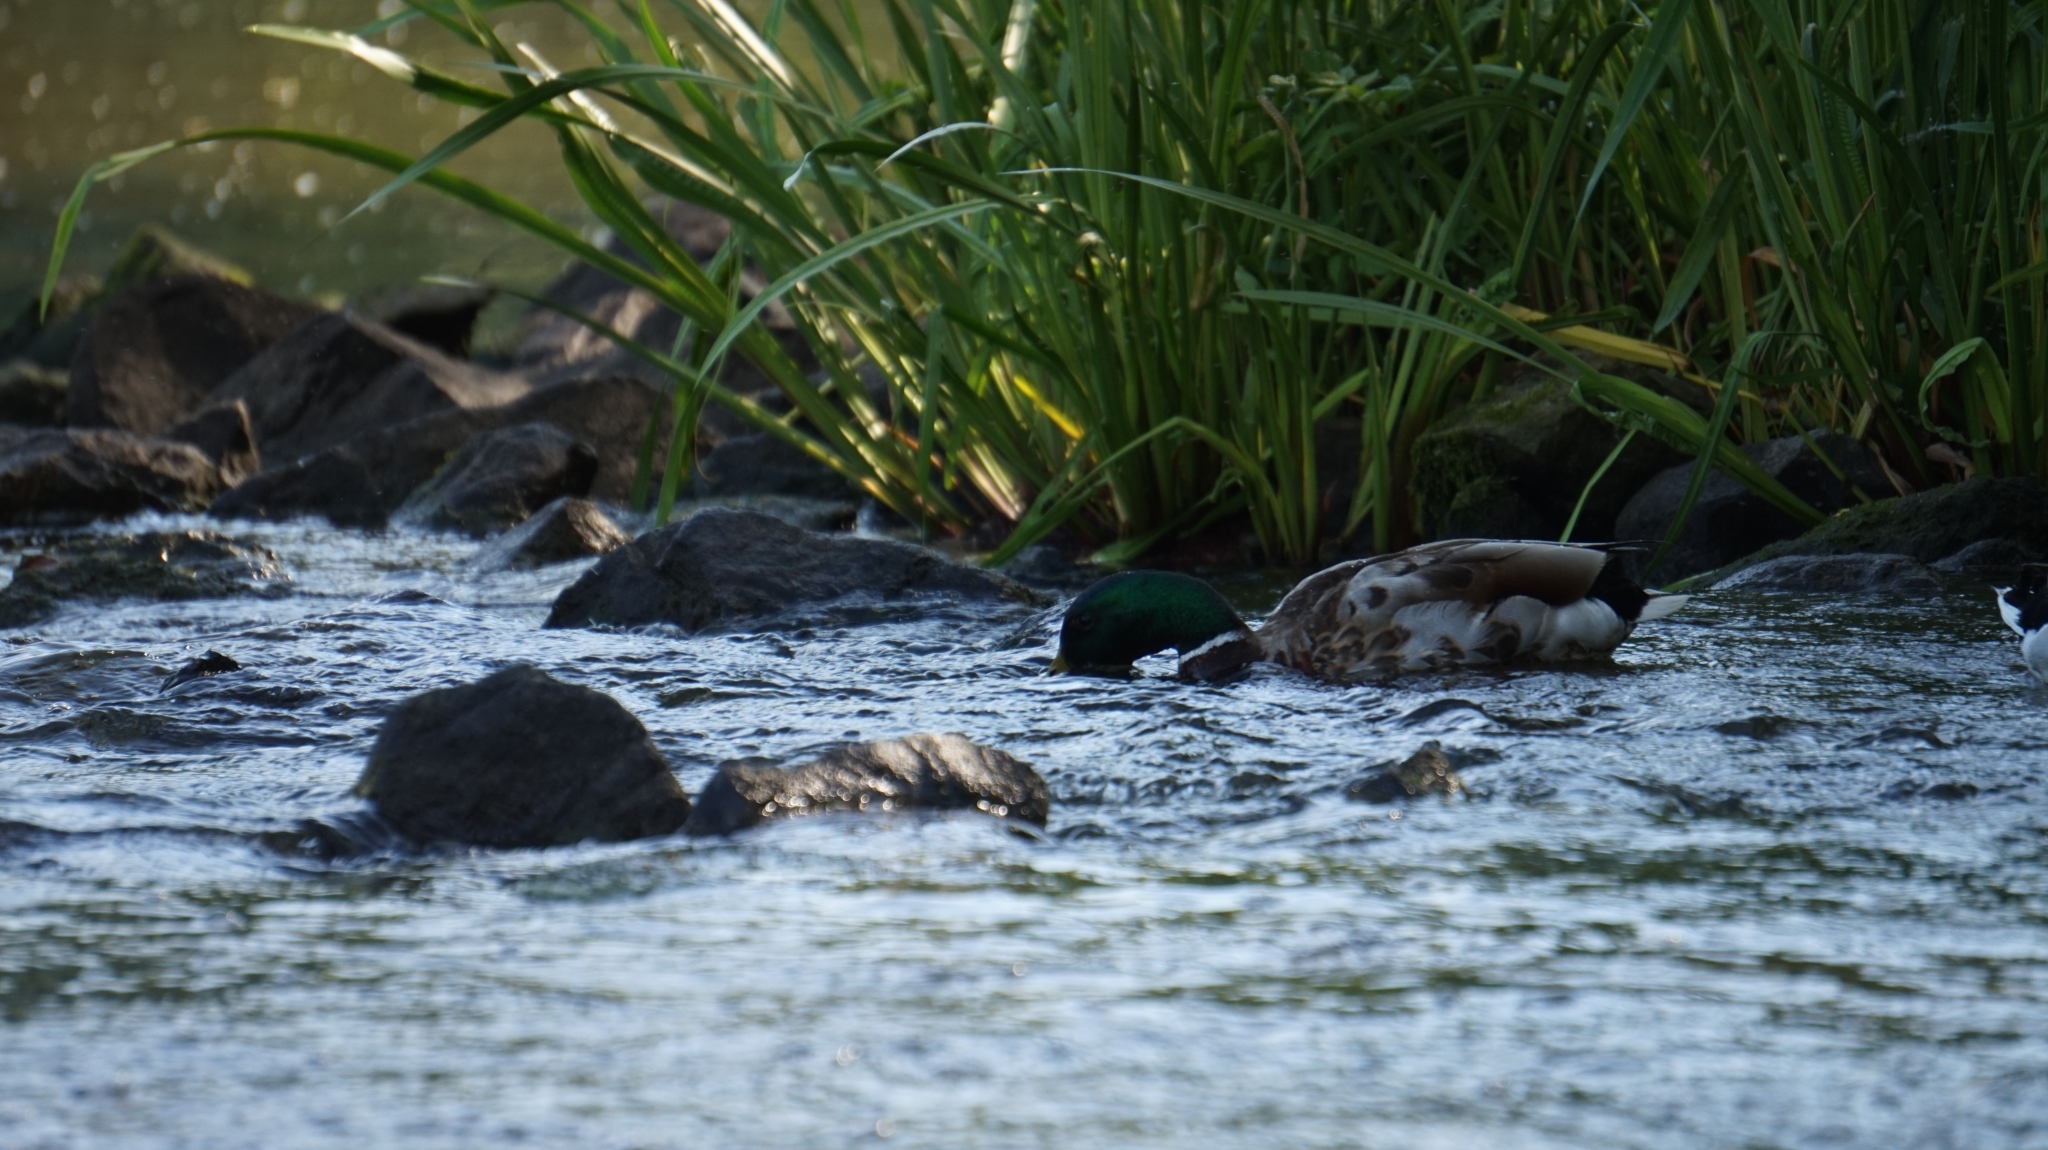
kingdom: Animalia
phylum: Chordata
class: Aves
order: Anseriformes
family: Anatidae
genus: Anas
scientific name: Anas platyrhynchos
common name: Mallard
